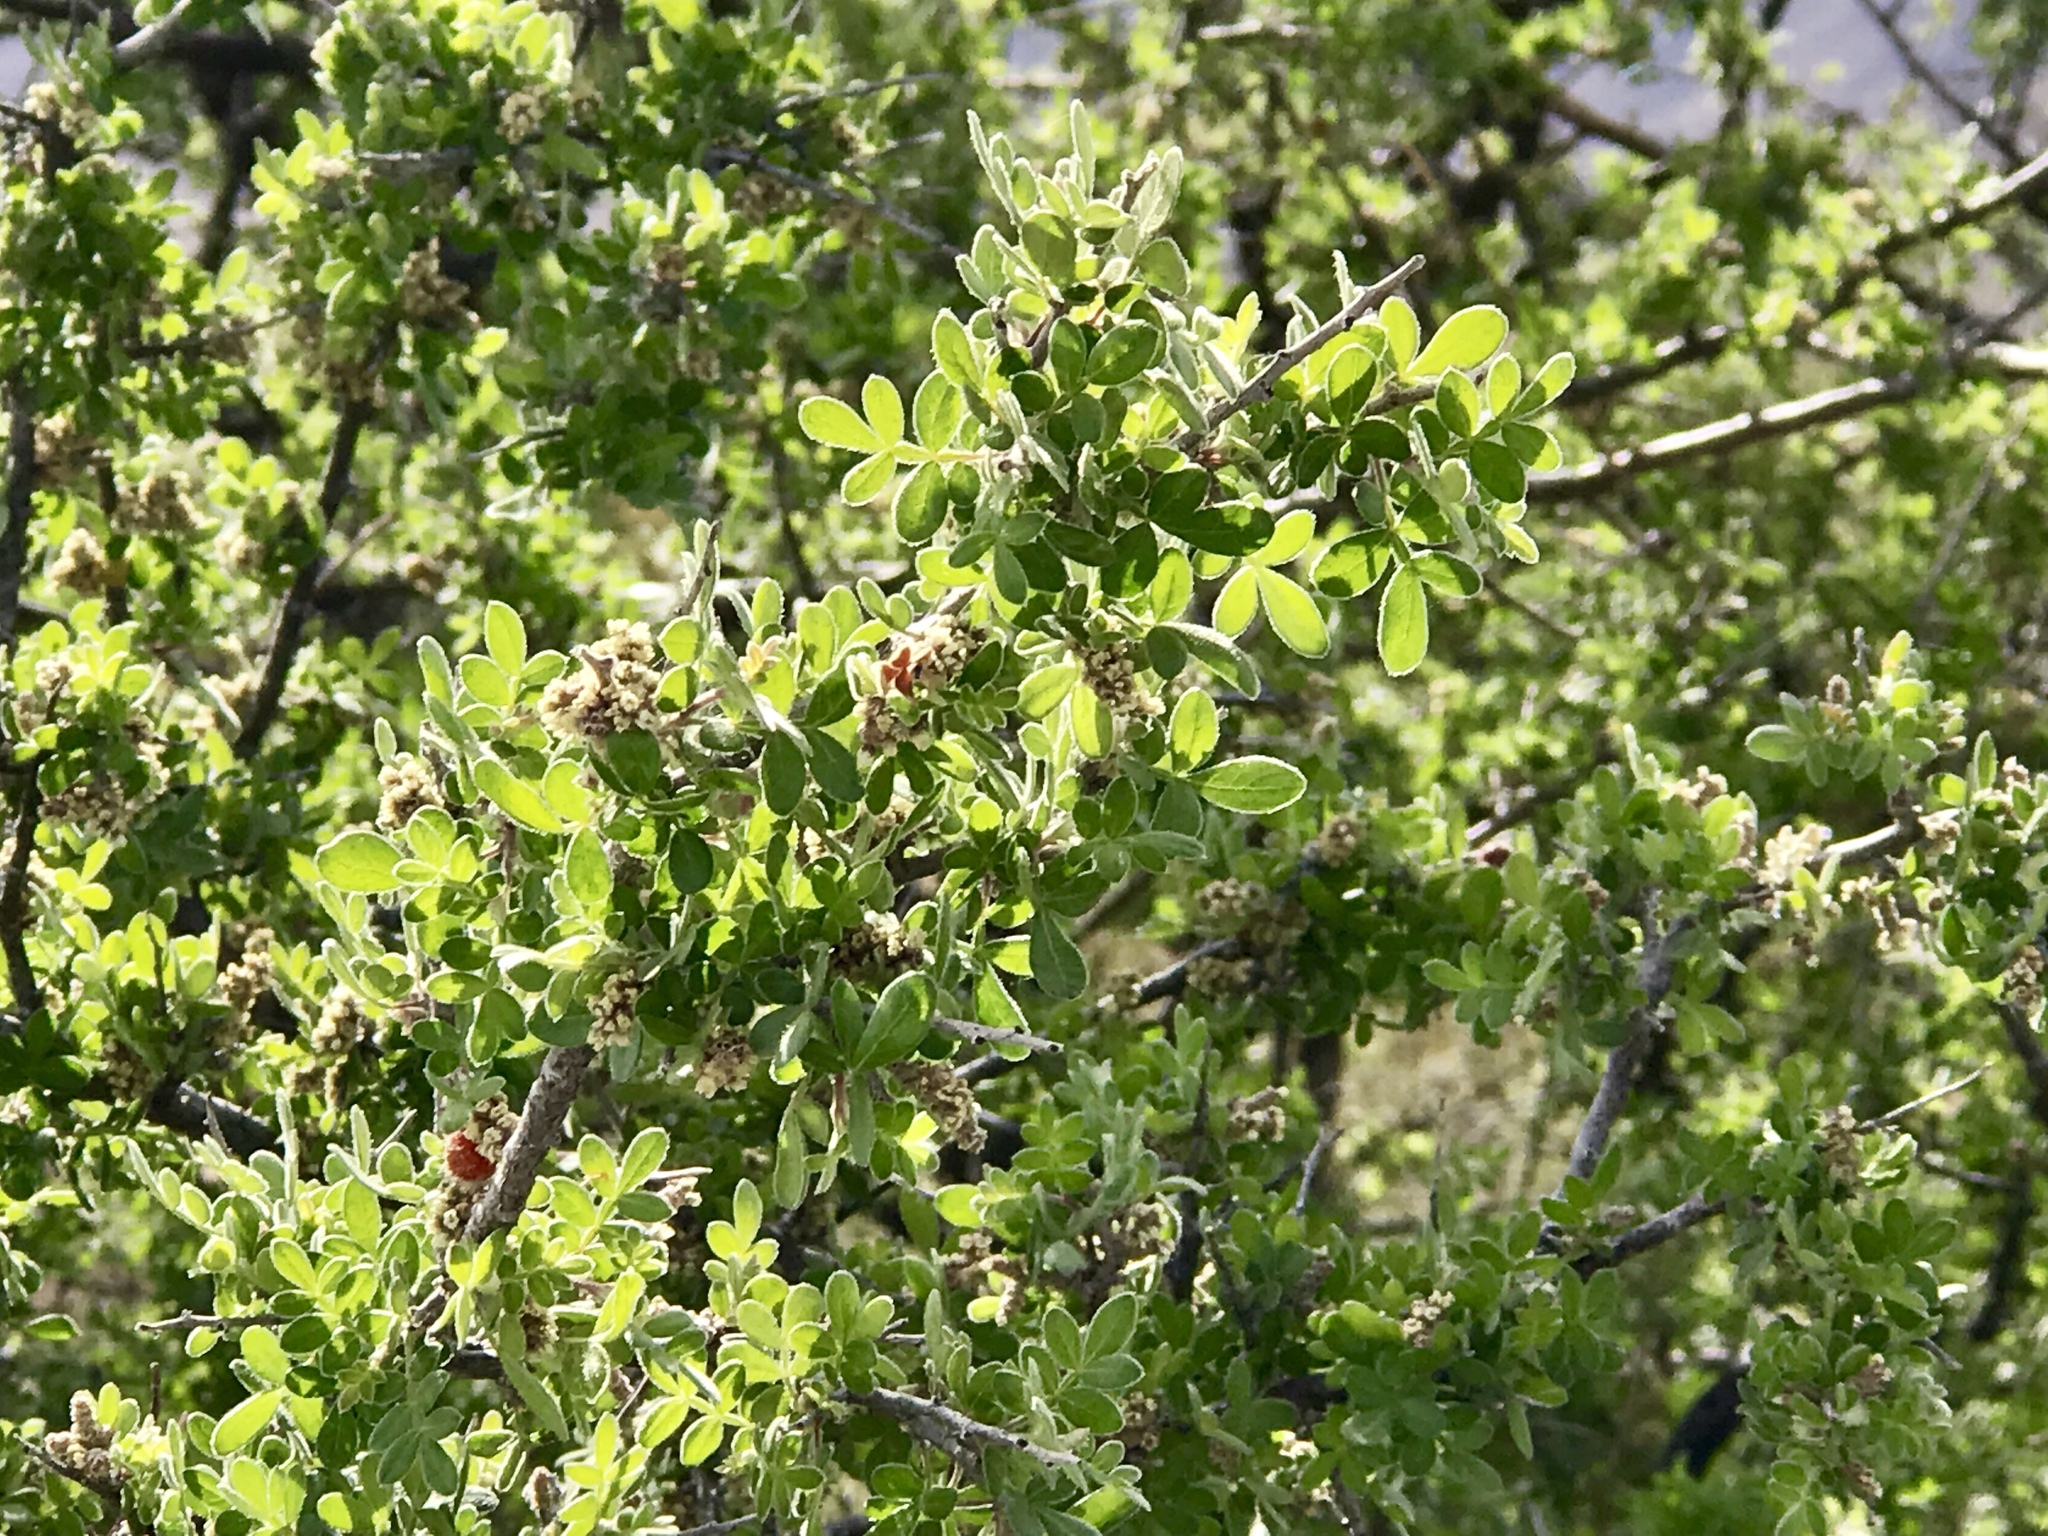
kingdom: Plantae
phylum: Tracheophyta
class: Magnoliopsida
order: Sapindales
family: Anacardiaceae
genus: Rhus
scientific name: Rhus microphylla
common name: Desert sumac
